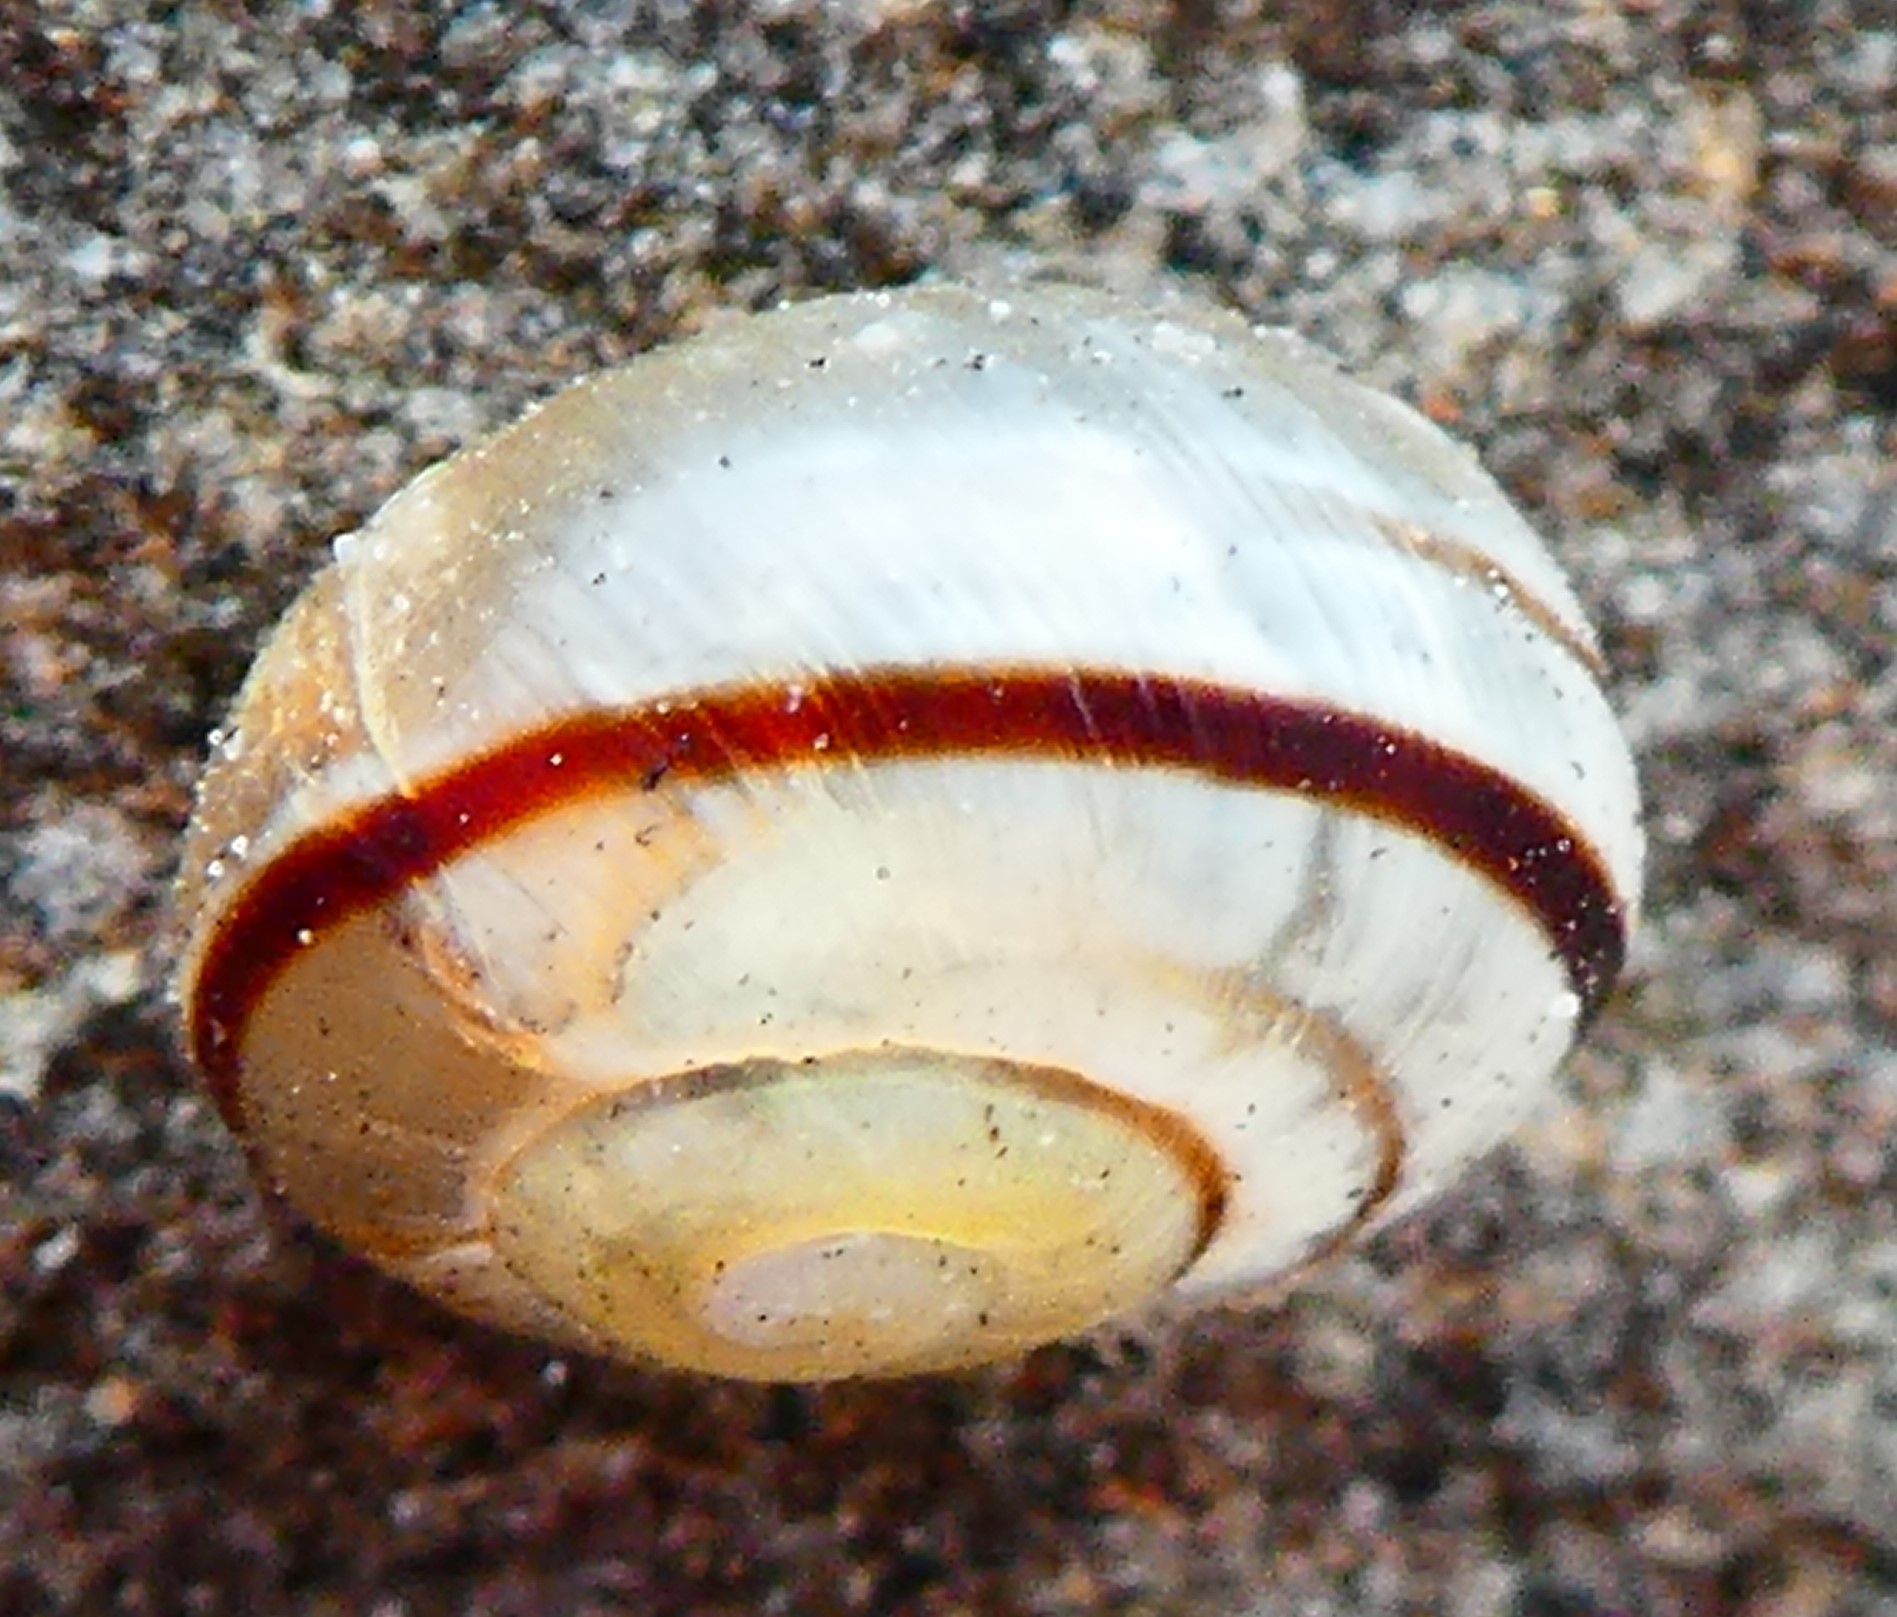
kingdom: Animalia
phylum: Mollusca
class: Gastropoda
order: Stylommatophora
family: Helicidae
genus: Cepaea
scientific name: Cepaea
